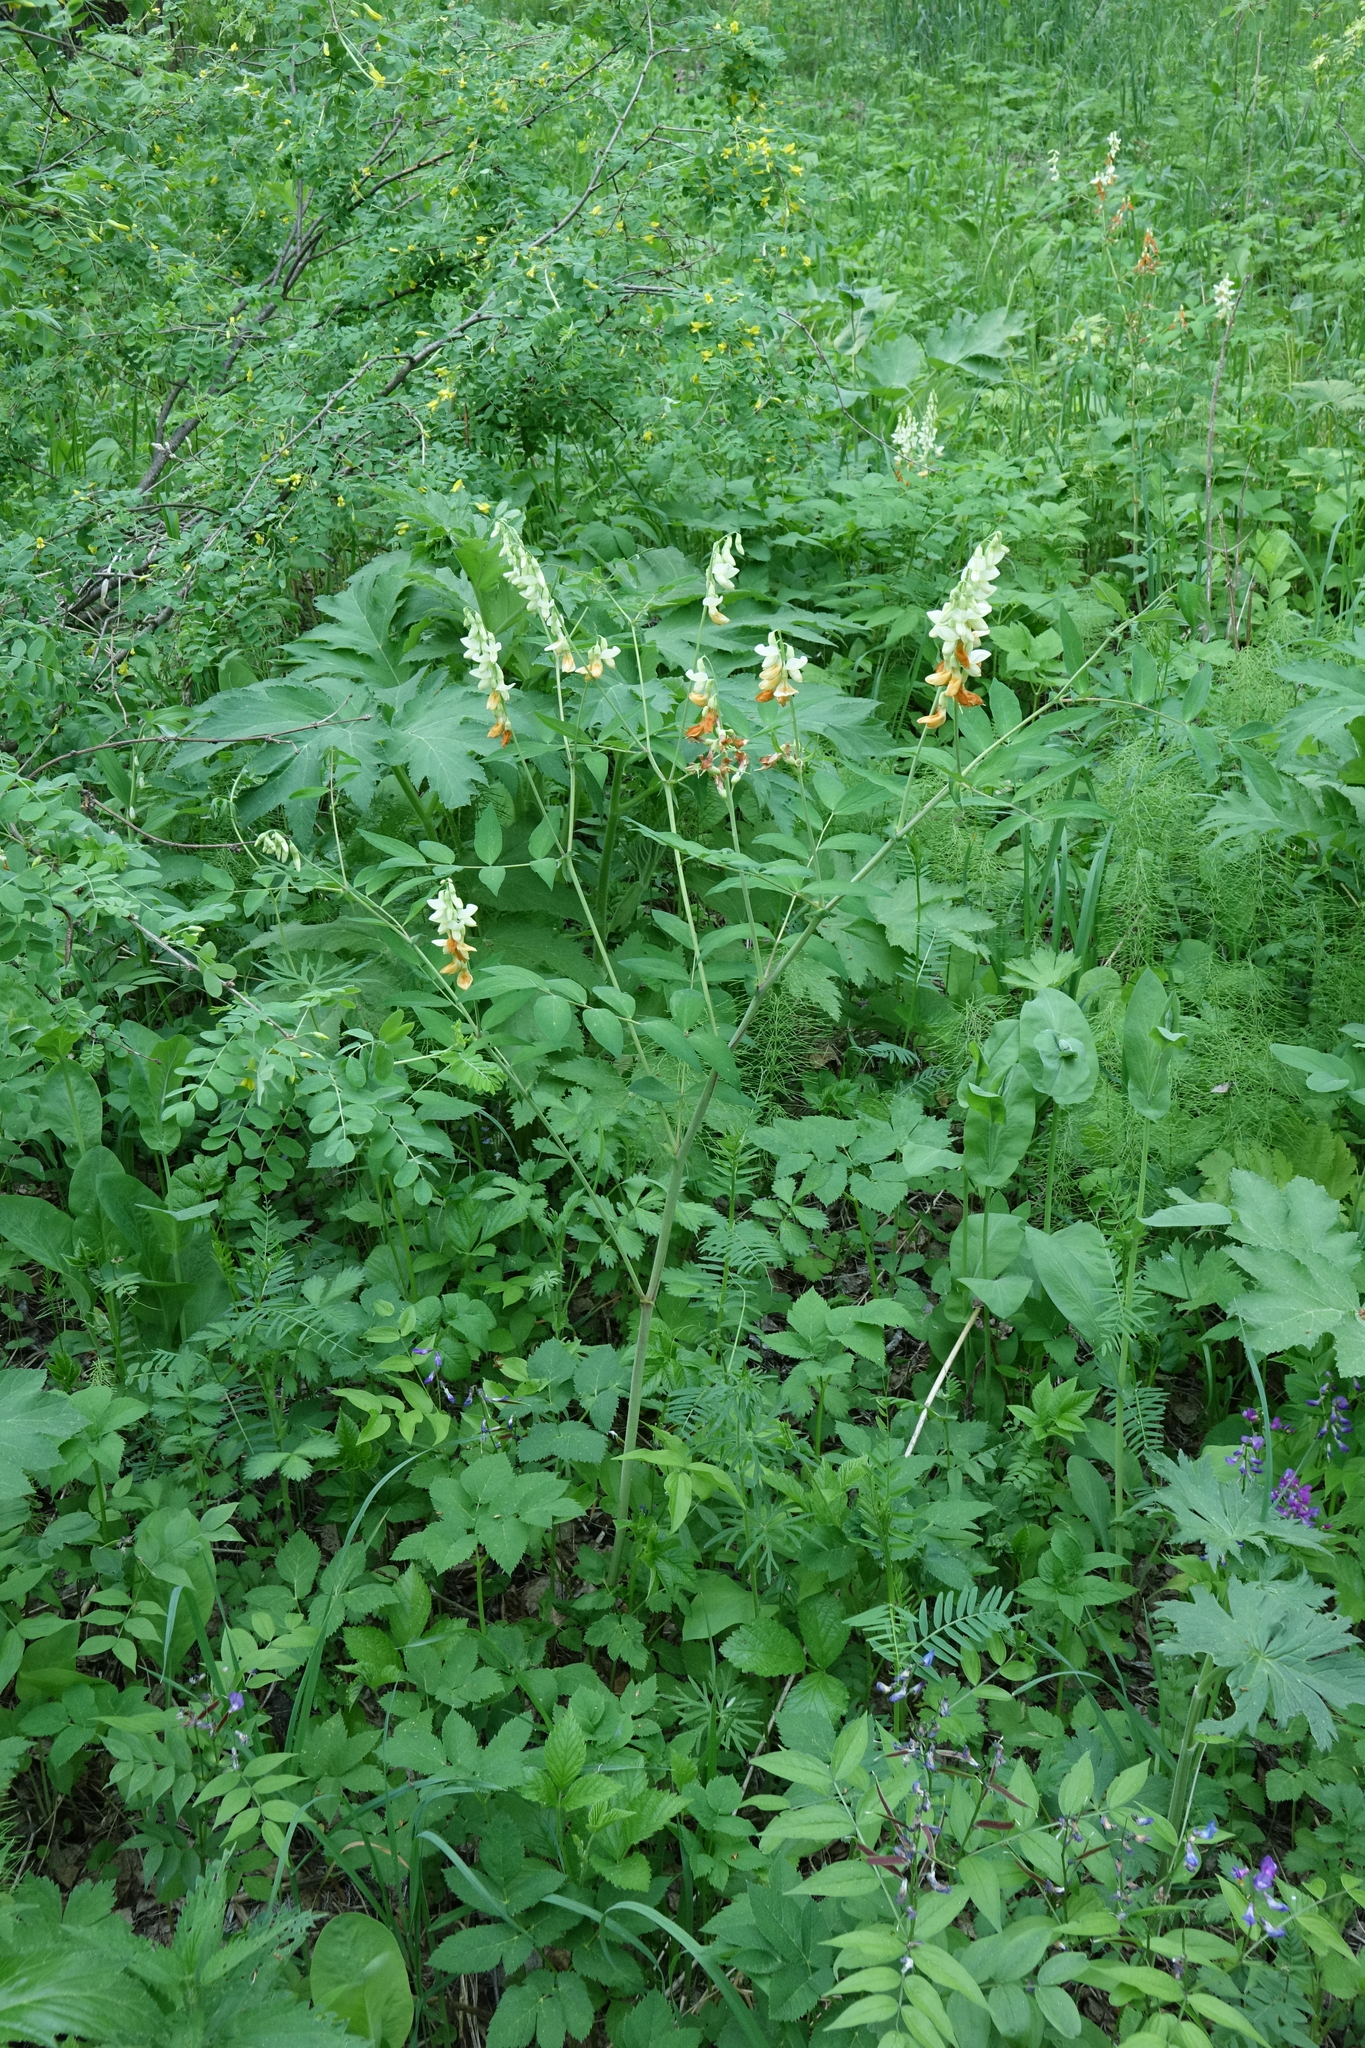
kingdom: Plantae
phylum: Tracheophyta
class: Magnoliopsida
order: Fabales
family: Fabaceae
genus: Lathyrus
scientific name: Lathyrus gmelinii
